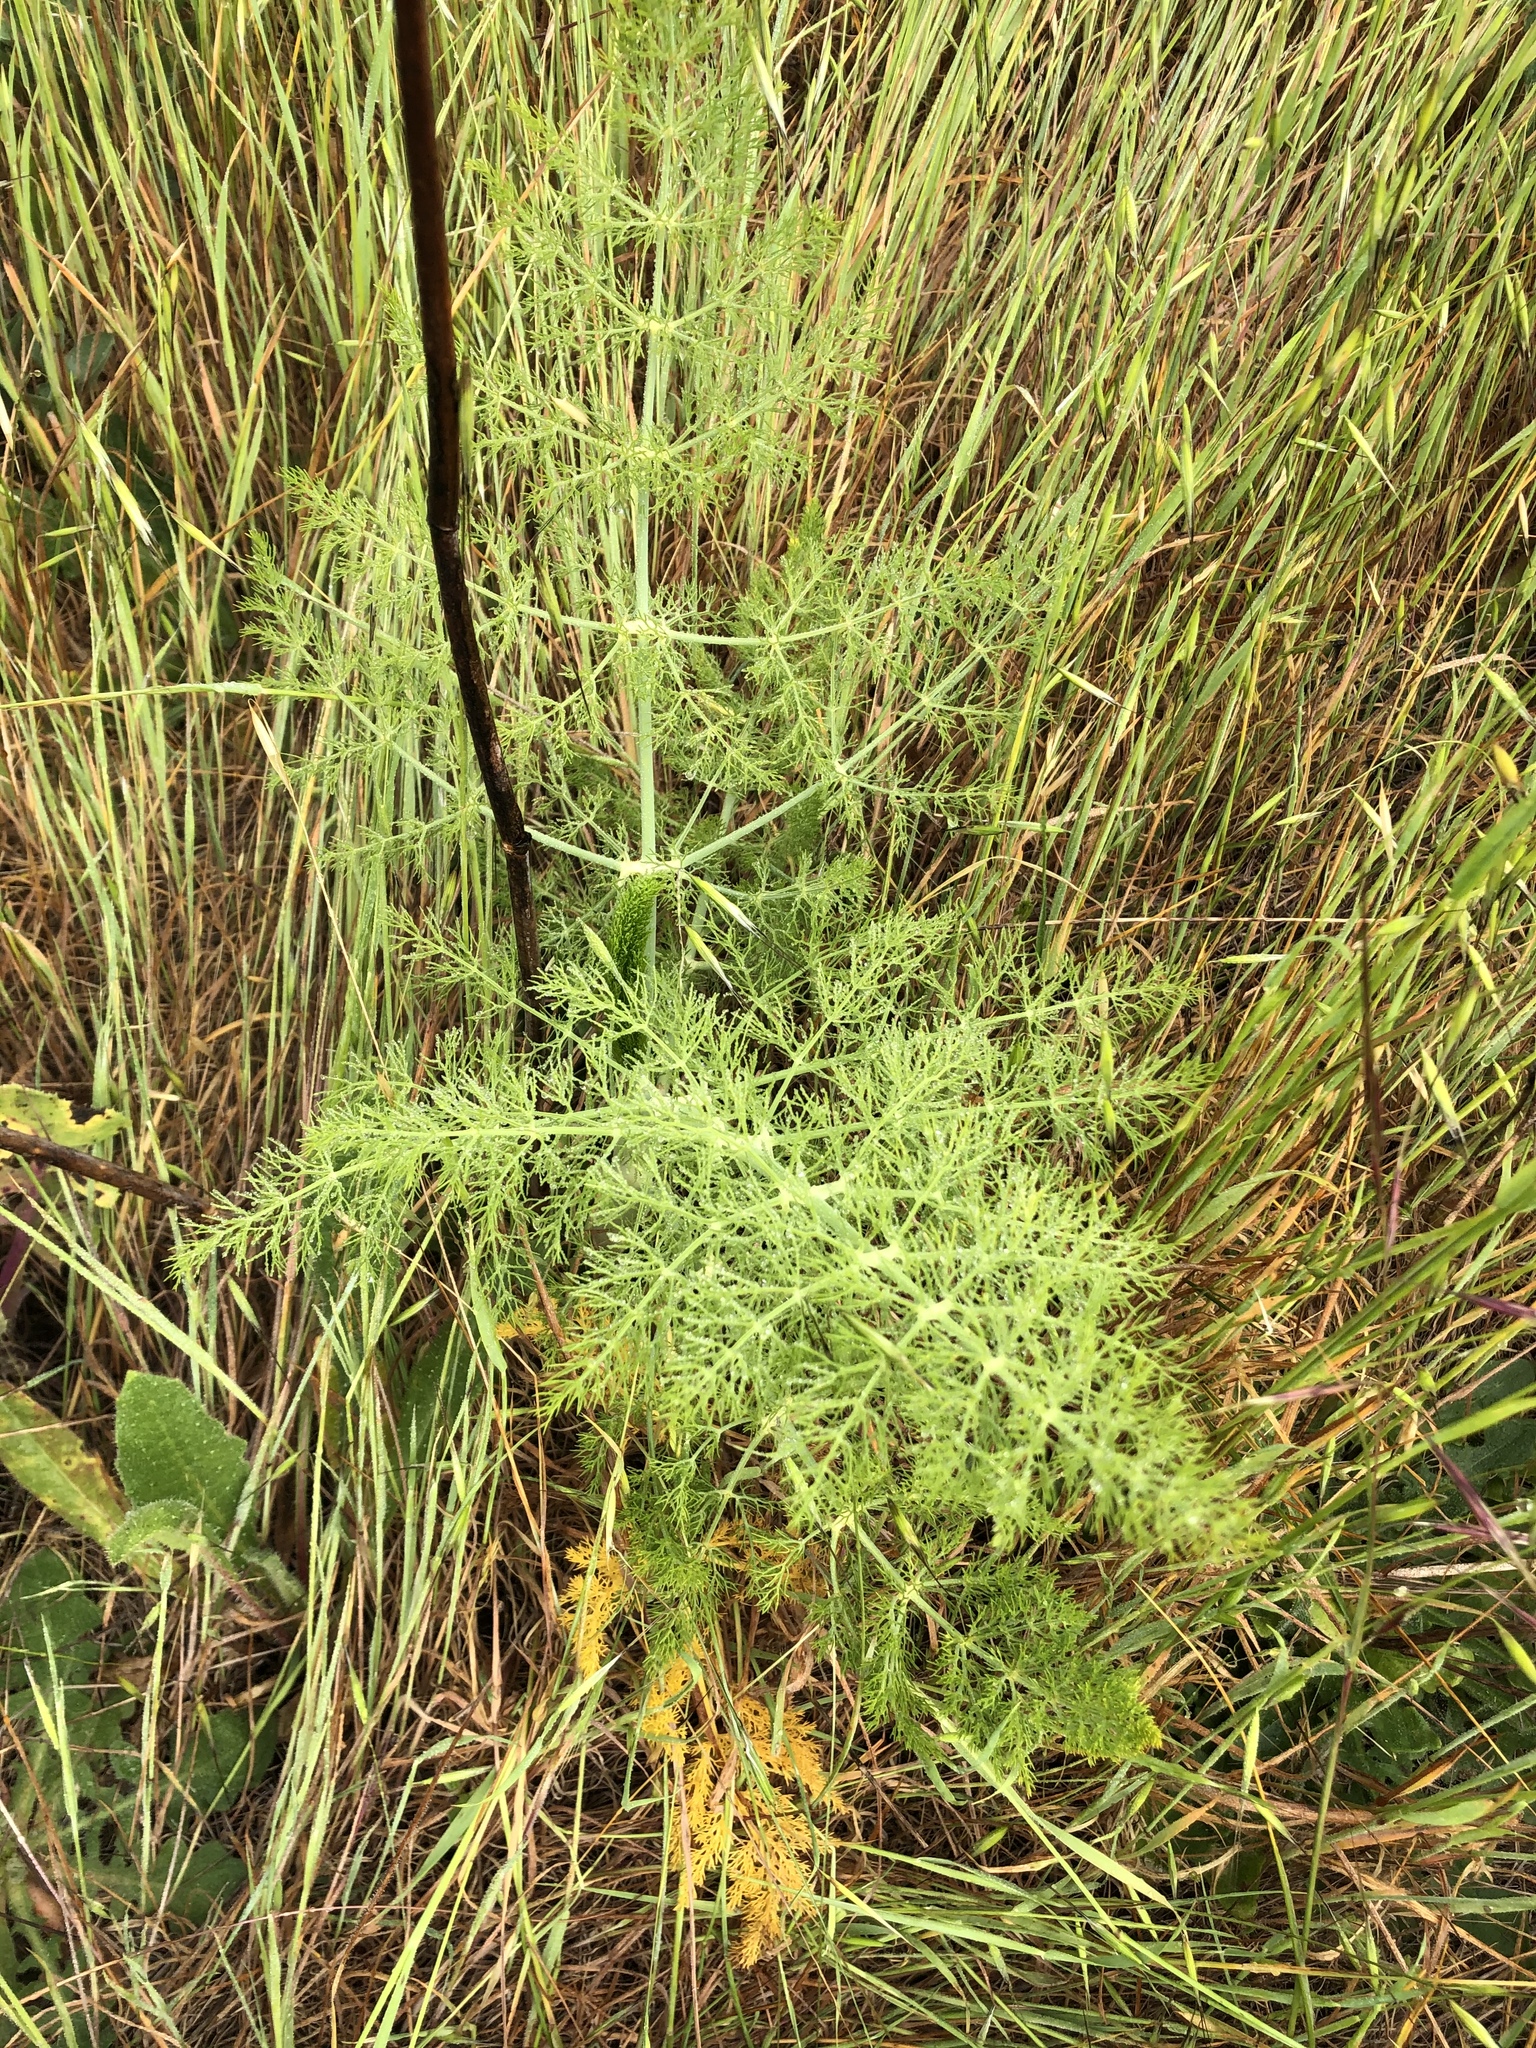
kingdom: Plantae
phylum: Tracheophyta
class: Magnoliopsida
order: Apiales
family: Apiaceae
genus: Foeniculum
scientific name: Foeniculum vulgare
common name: Fennel
